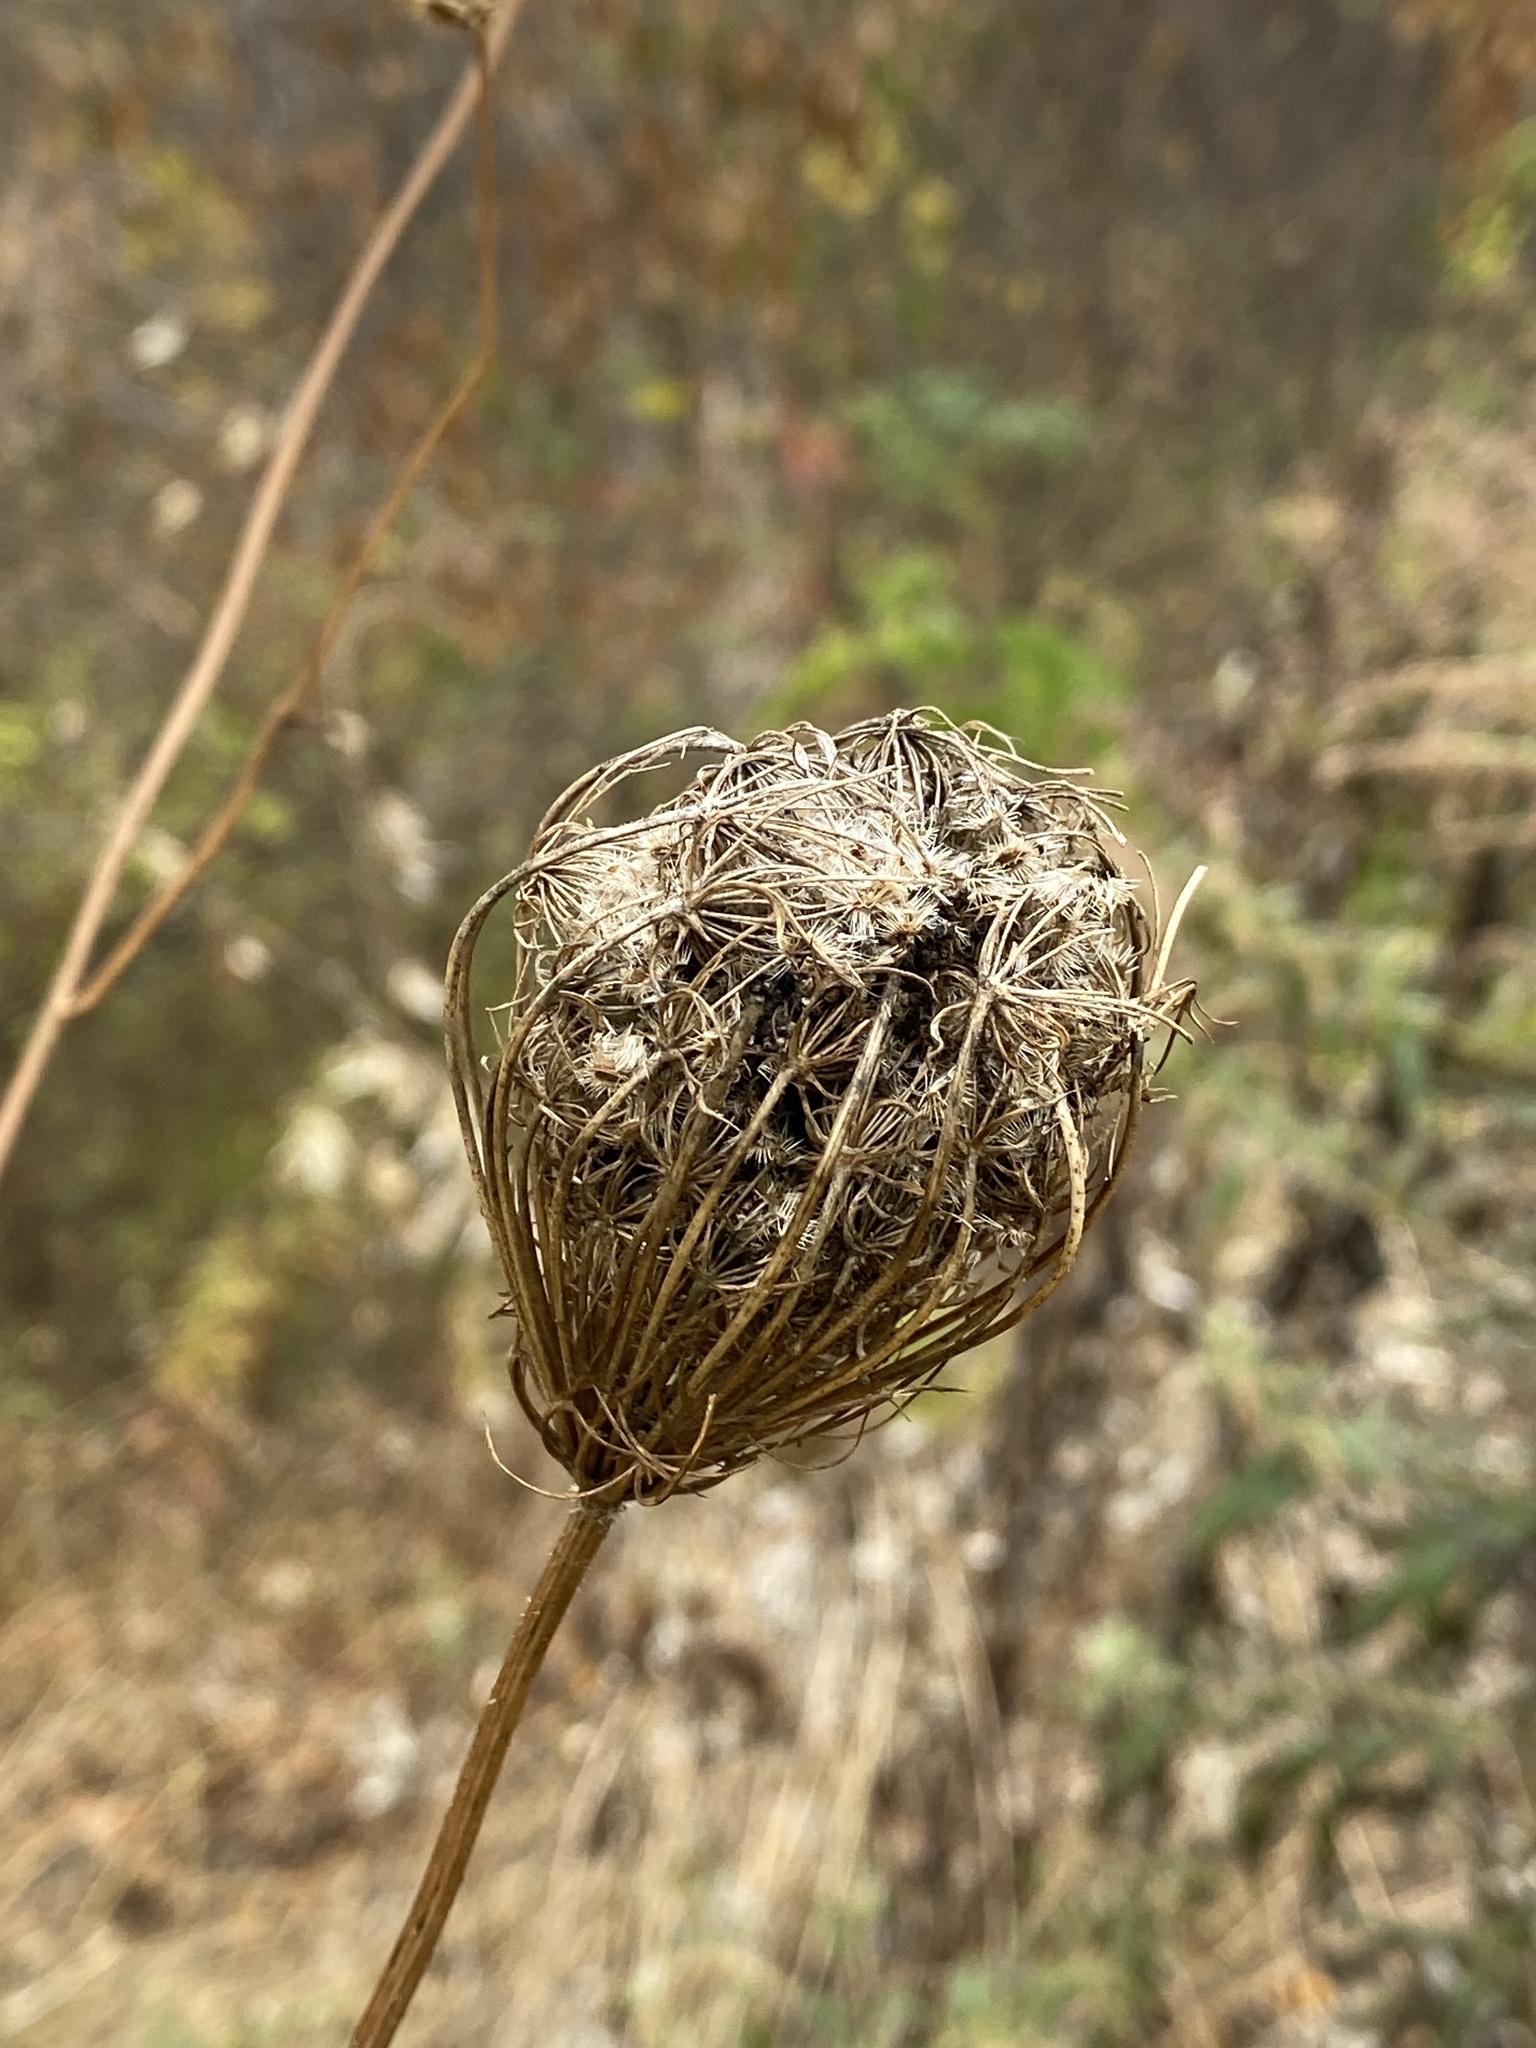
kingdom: Plantae
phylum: Tracheophyta
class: Magnoliopsida
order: Apiales
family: Apiaceae
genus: Daucus
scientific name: Daucus carota
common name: Wild carrot
